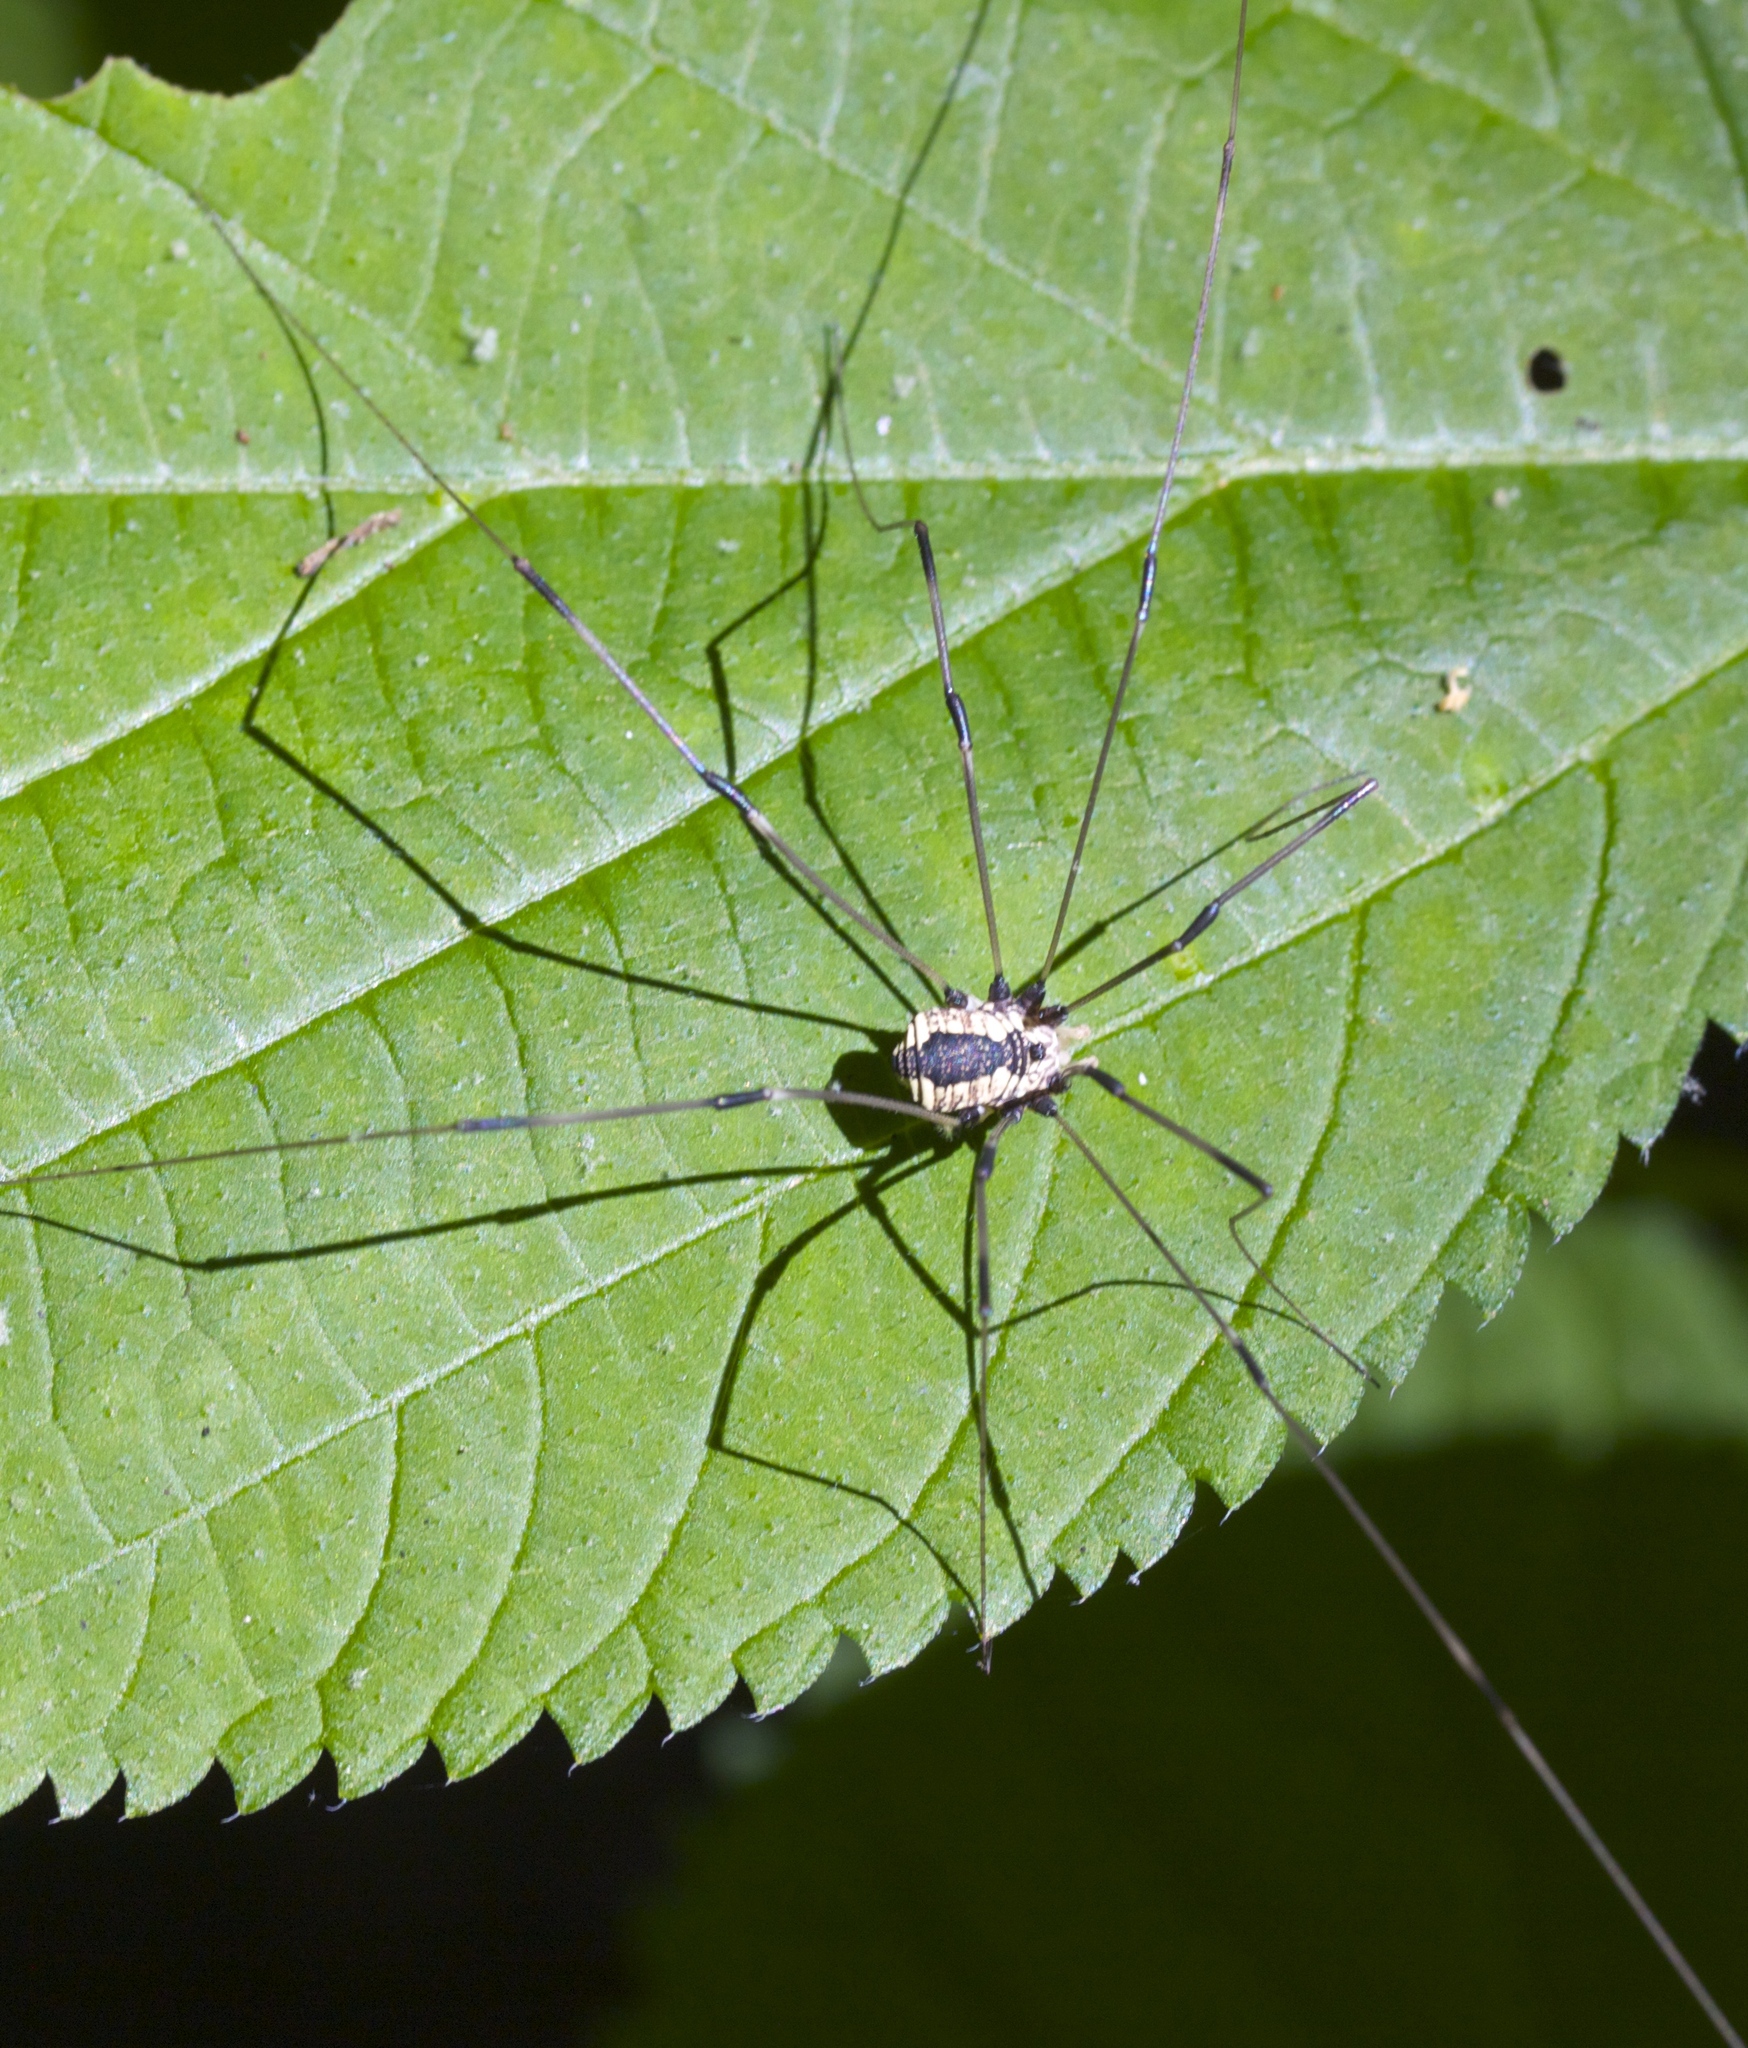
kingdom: Animalia
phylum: Arthropoda
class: Arachnida
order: Opiliones
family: Sclerosomatidae
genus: Leiobunum
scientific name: Leiobunum vittatum
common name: Eastern harvestman
